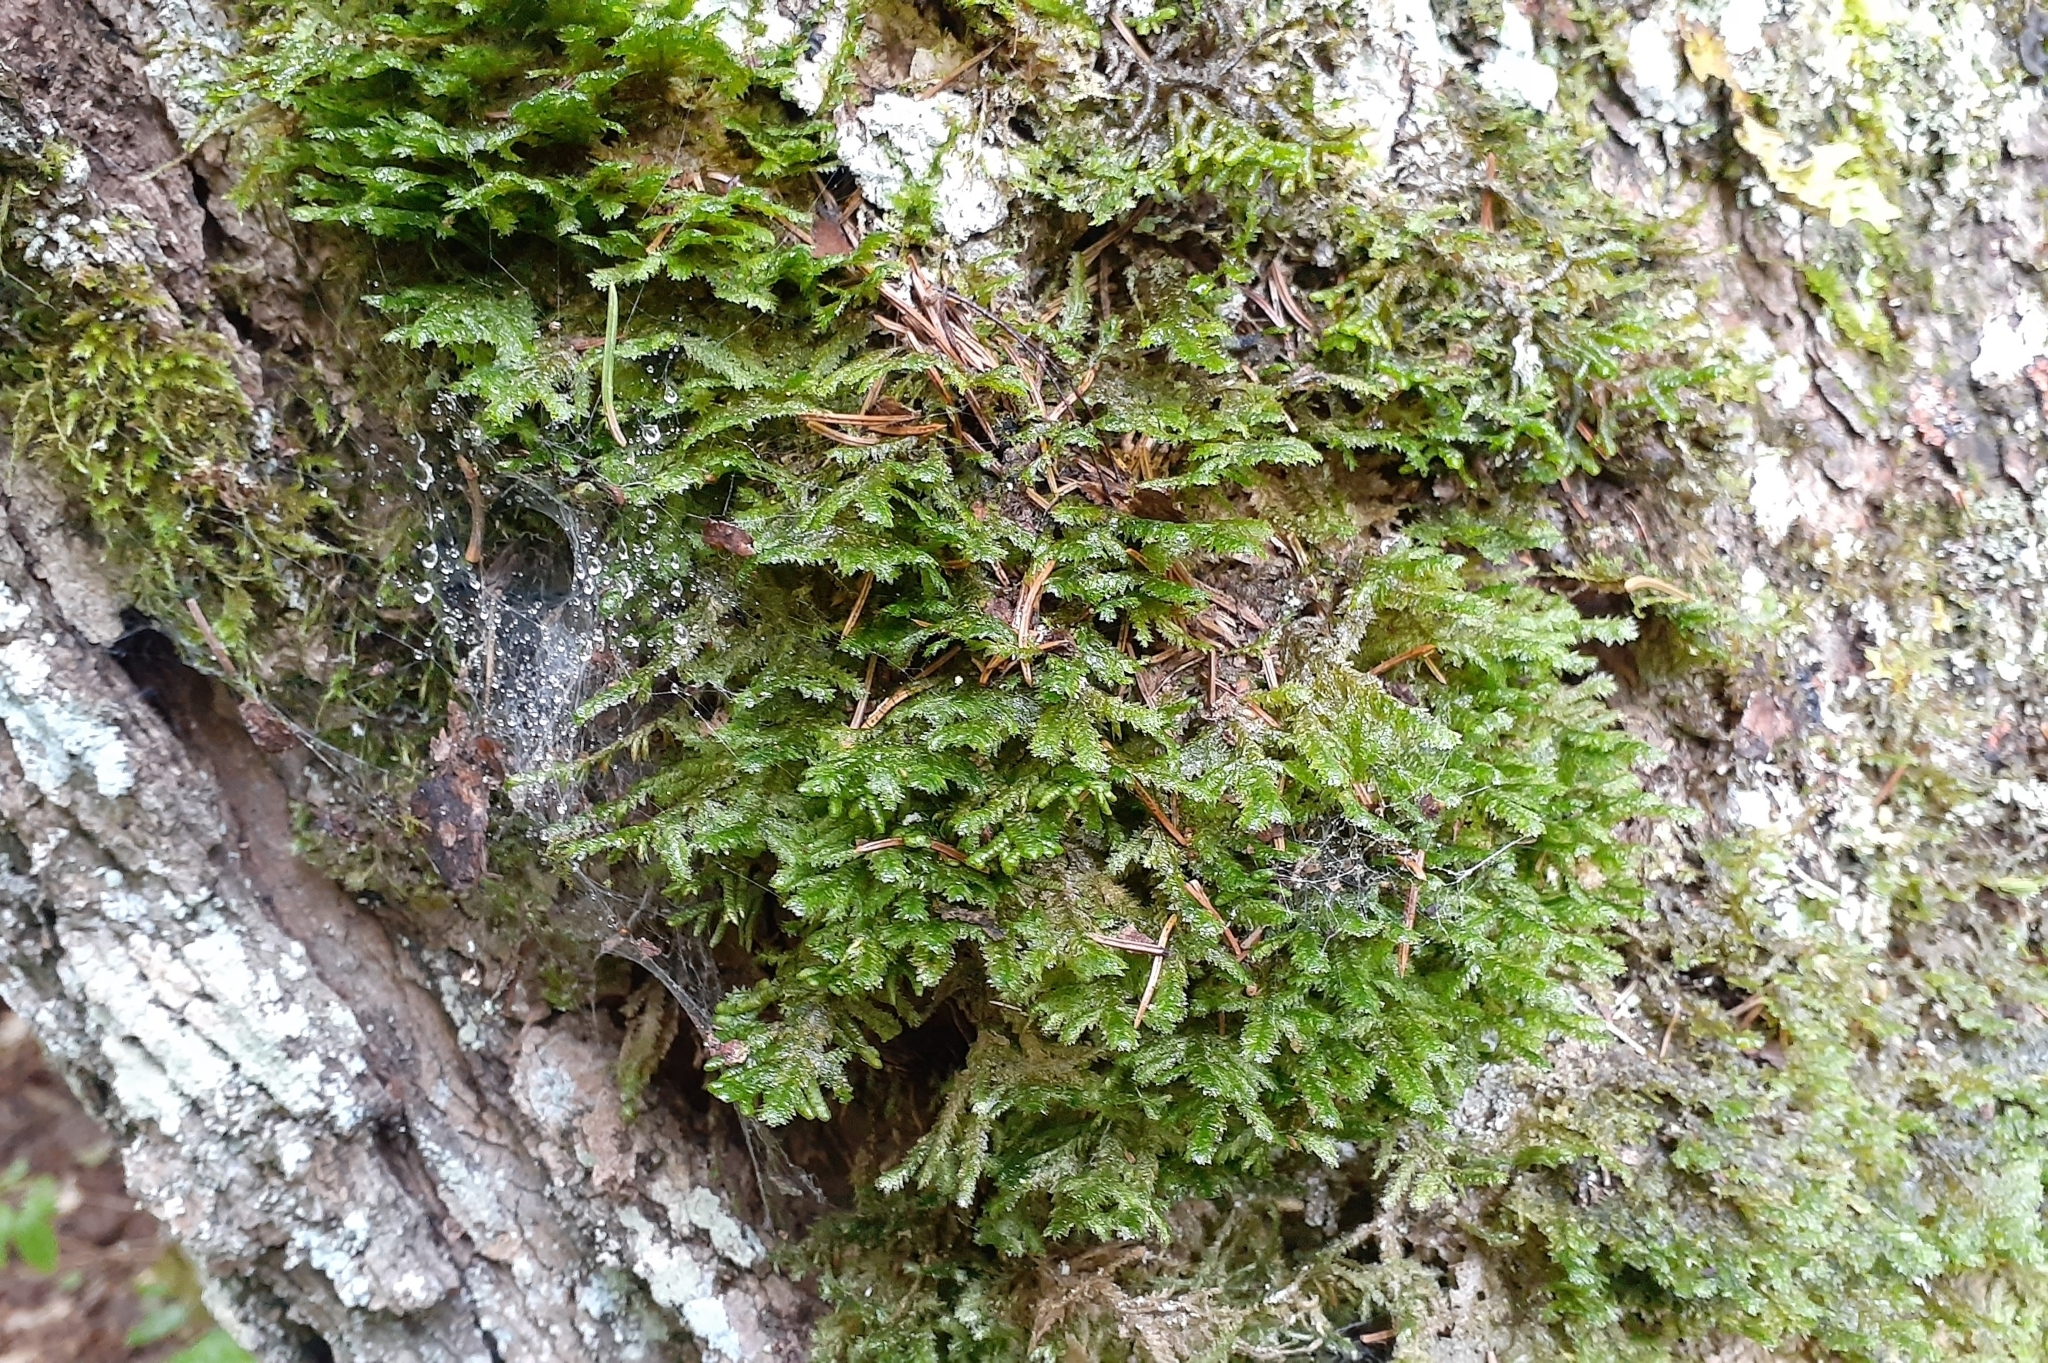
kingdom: Plantae
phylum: Bryophyta
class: Bryopsida
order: Hypnales
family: Neckeraceae
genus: Neckera
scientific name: Neckera pennata
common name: Feathery neckera
